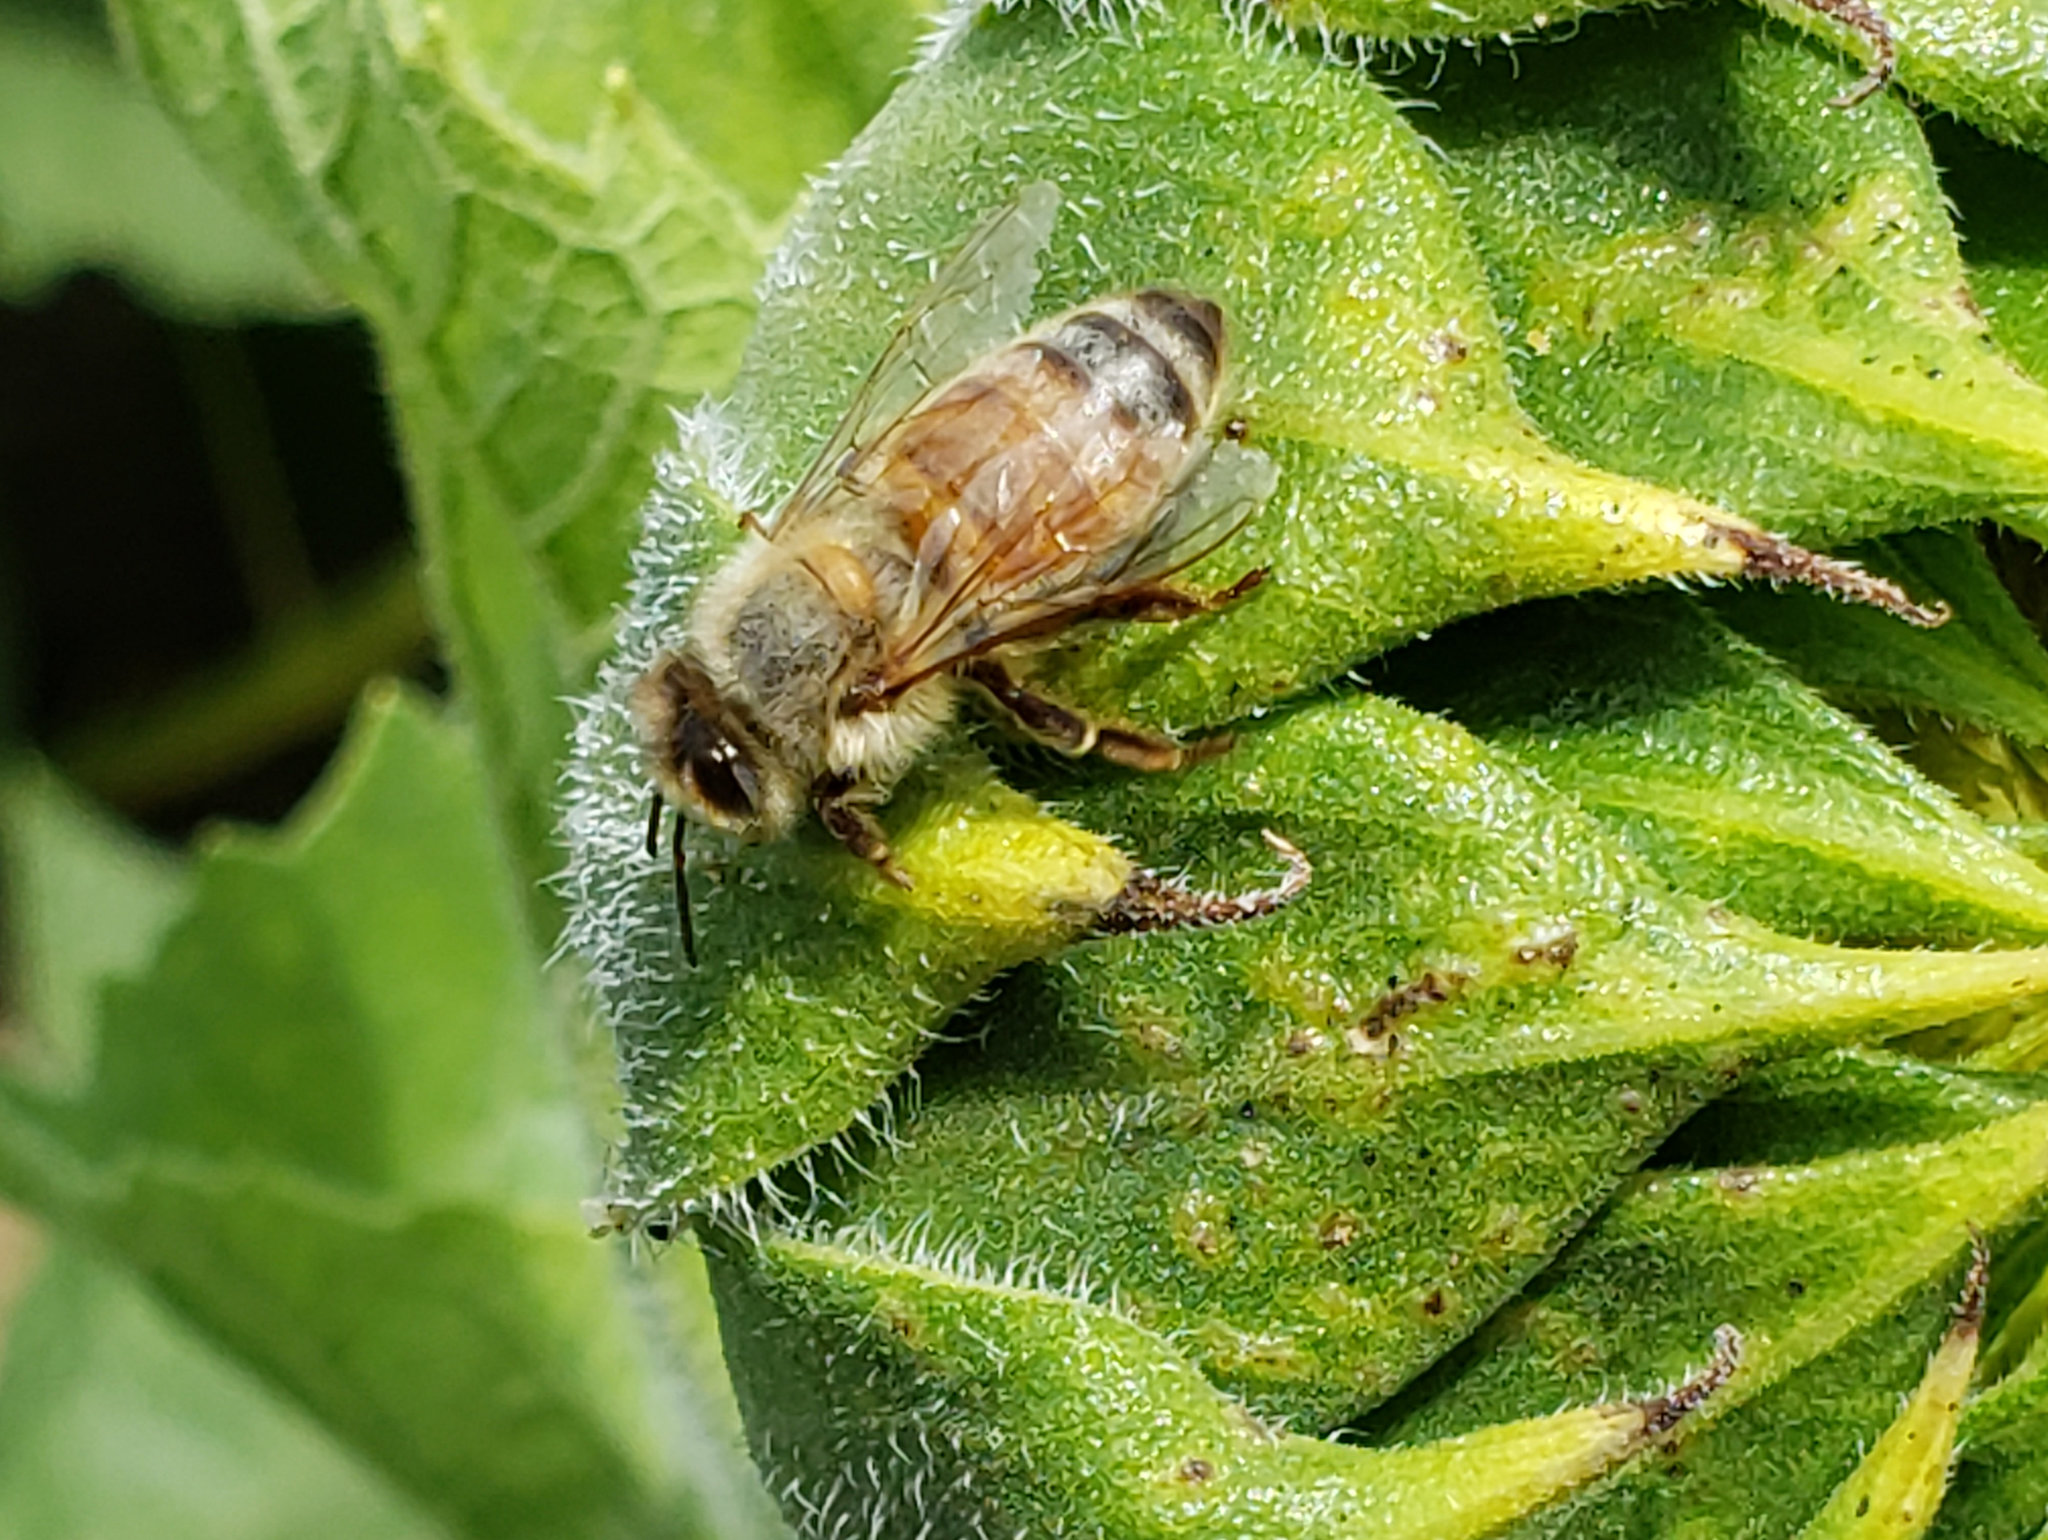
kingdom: Animalia
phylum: Arthropoda
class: Insecta
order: Hymenoptera
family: Apidae
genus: Apis
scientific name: Apis mellifera
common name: Honey bee
